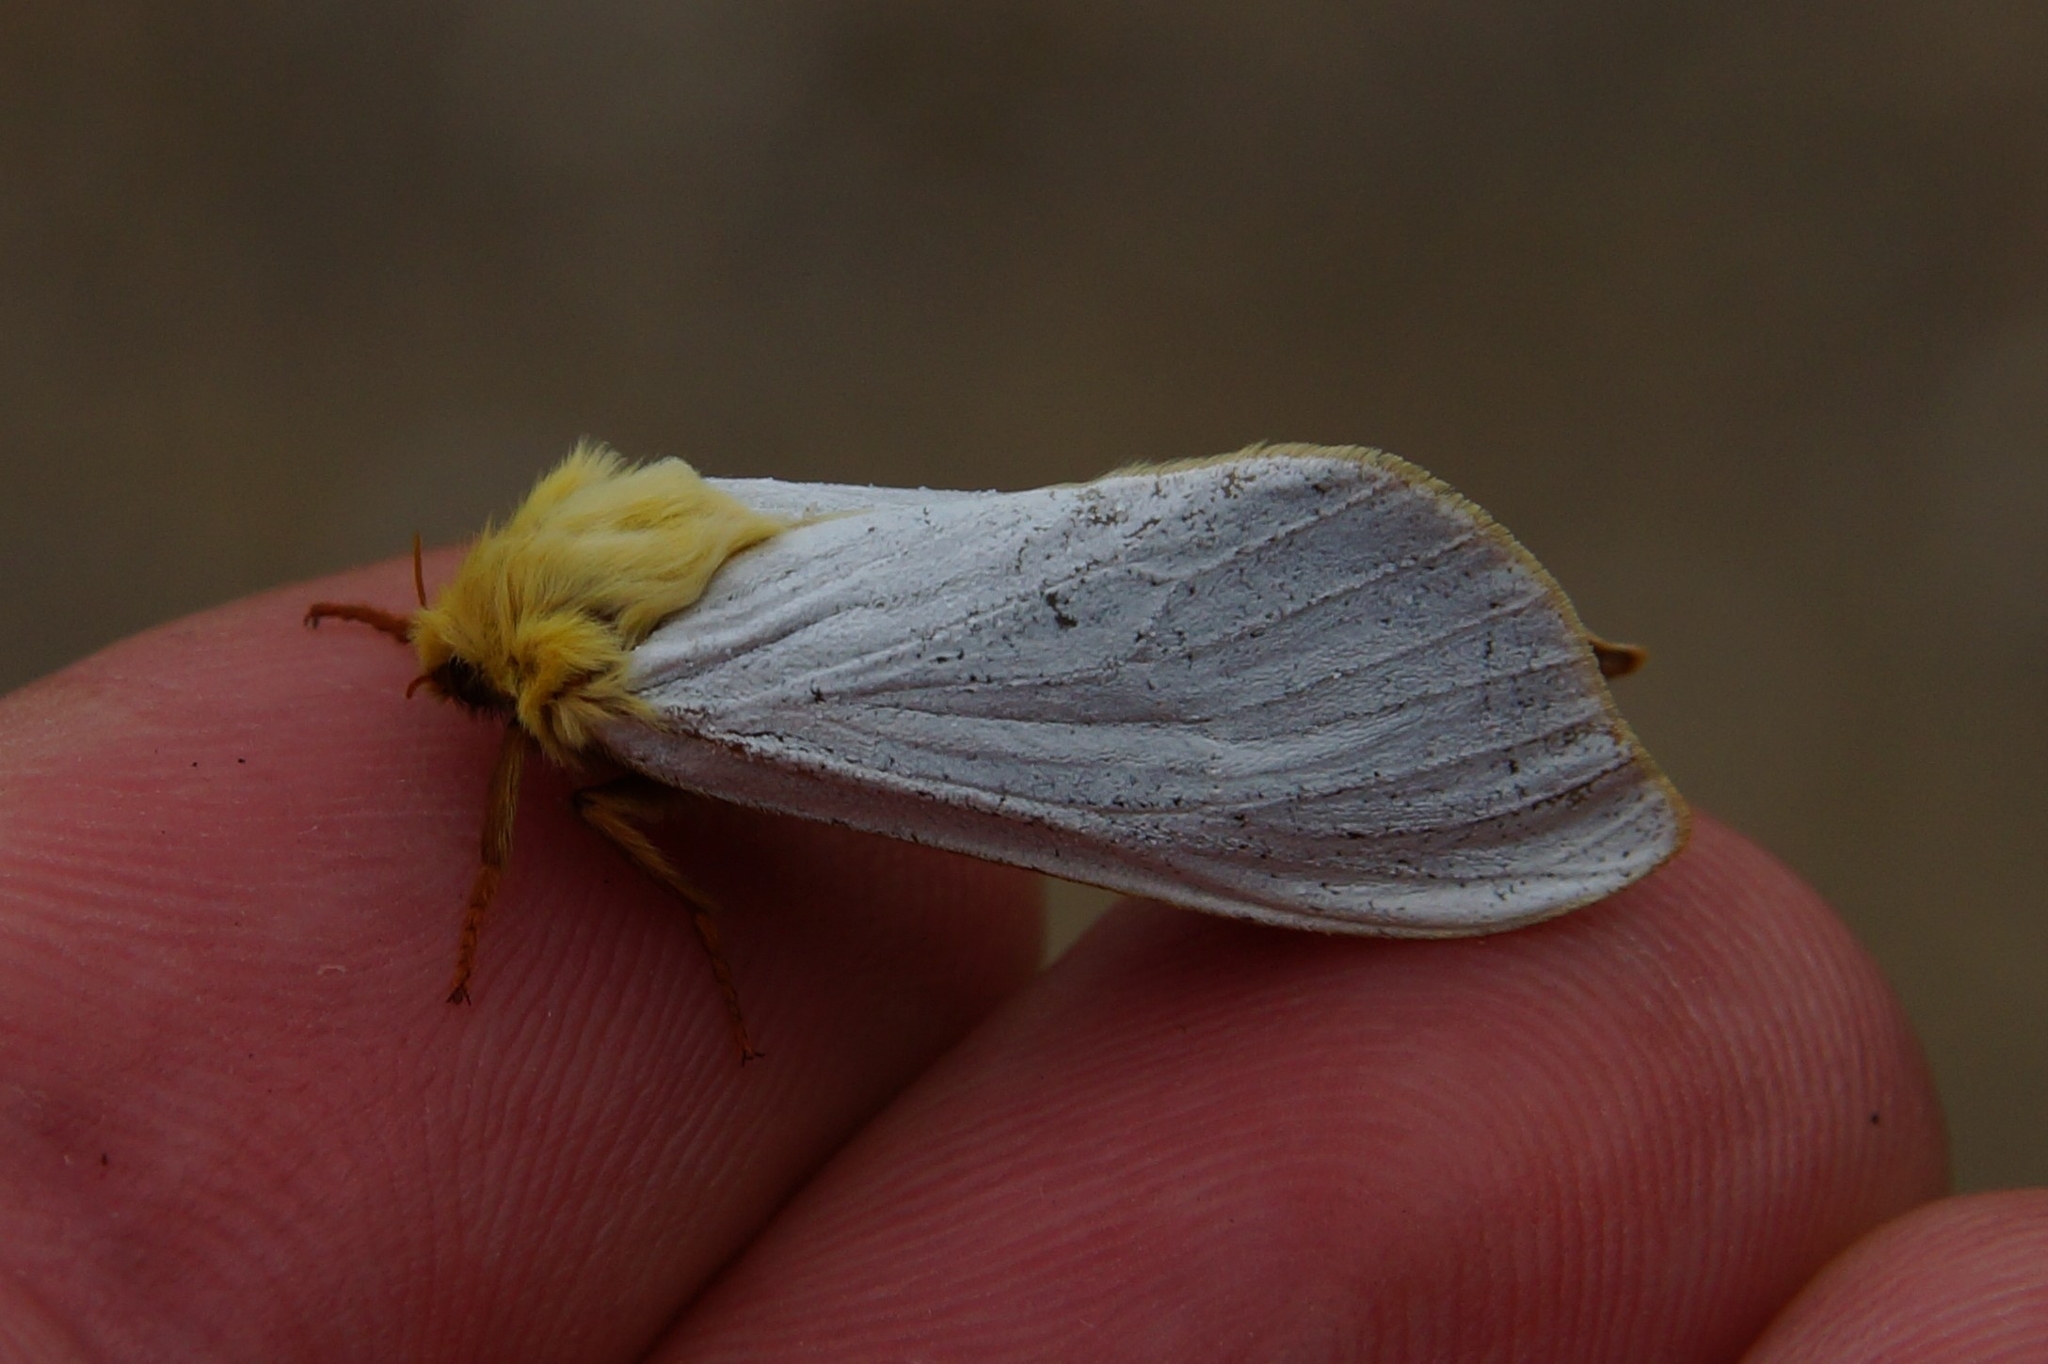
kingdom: Animalia
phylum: Arthropoda
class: Insecta
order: Lepidoptera
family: Hepialidae
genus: Hepialus
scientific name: Hepialus humuli
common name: Ghost moth
